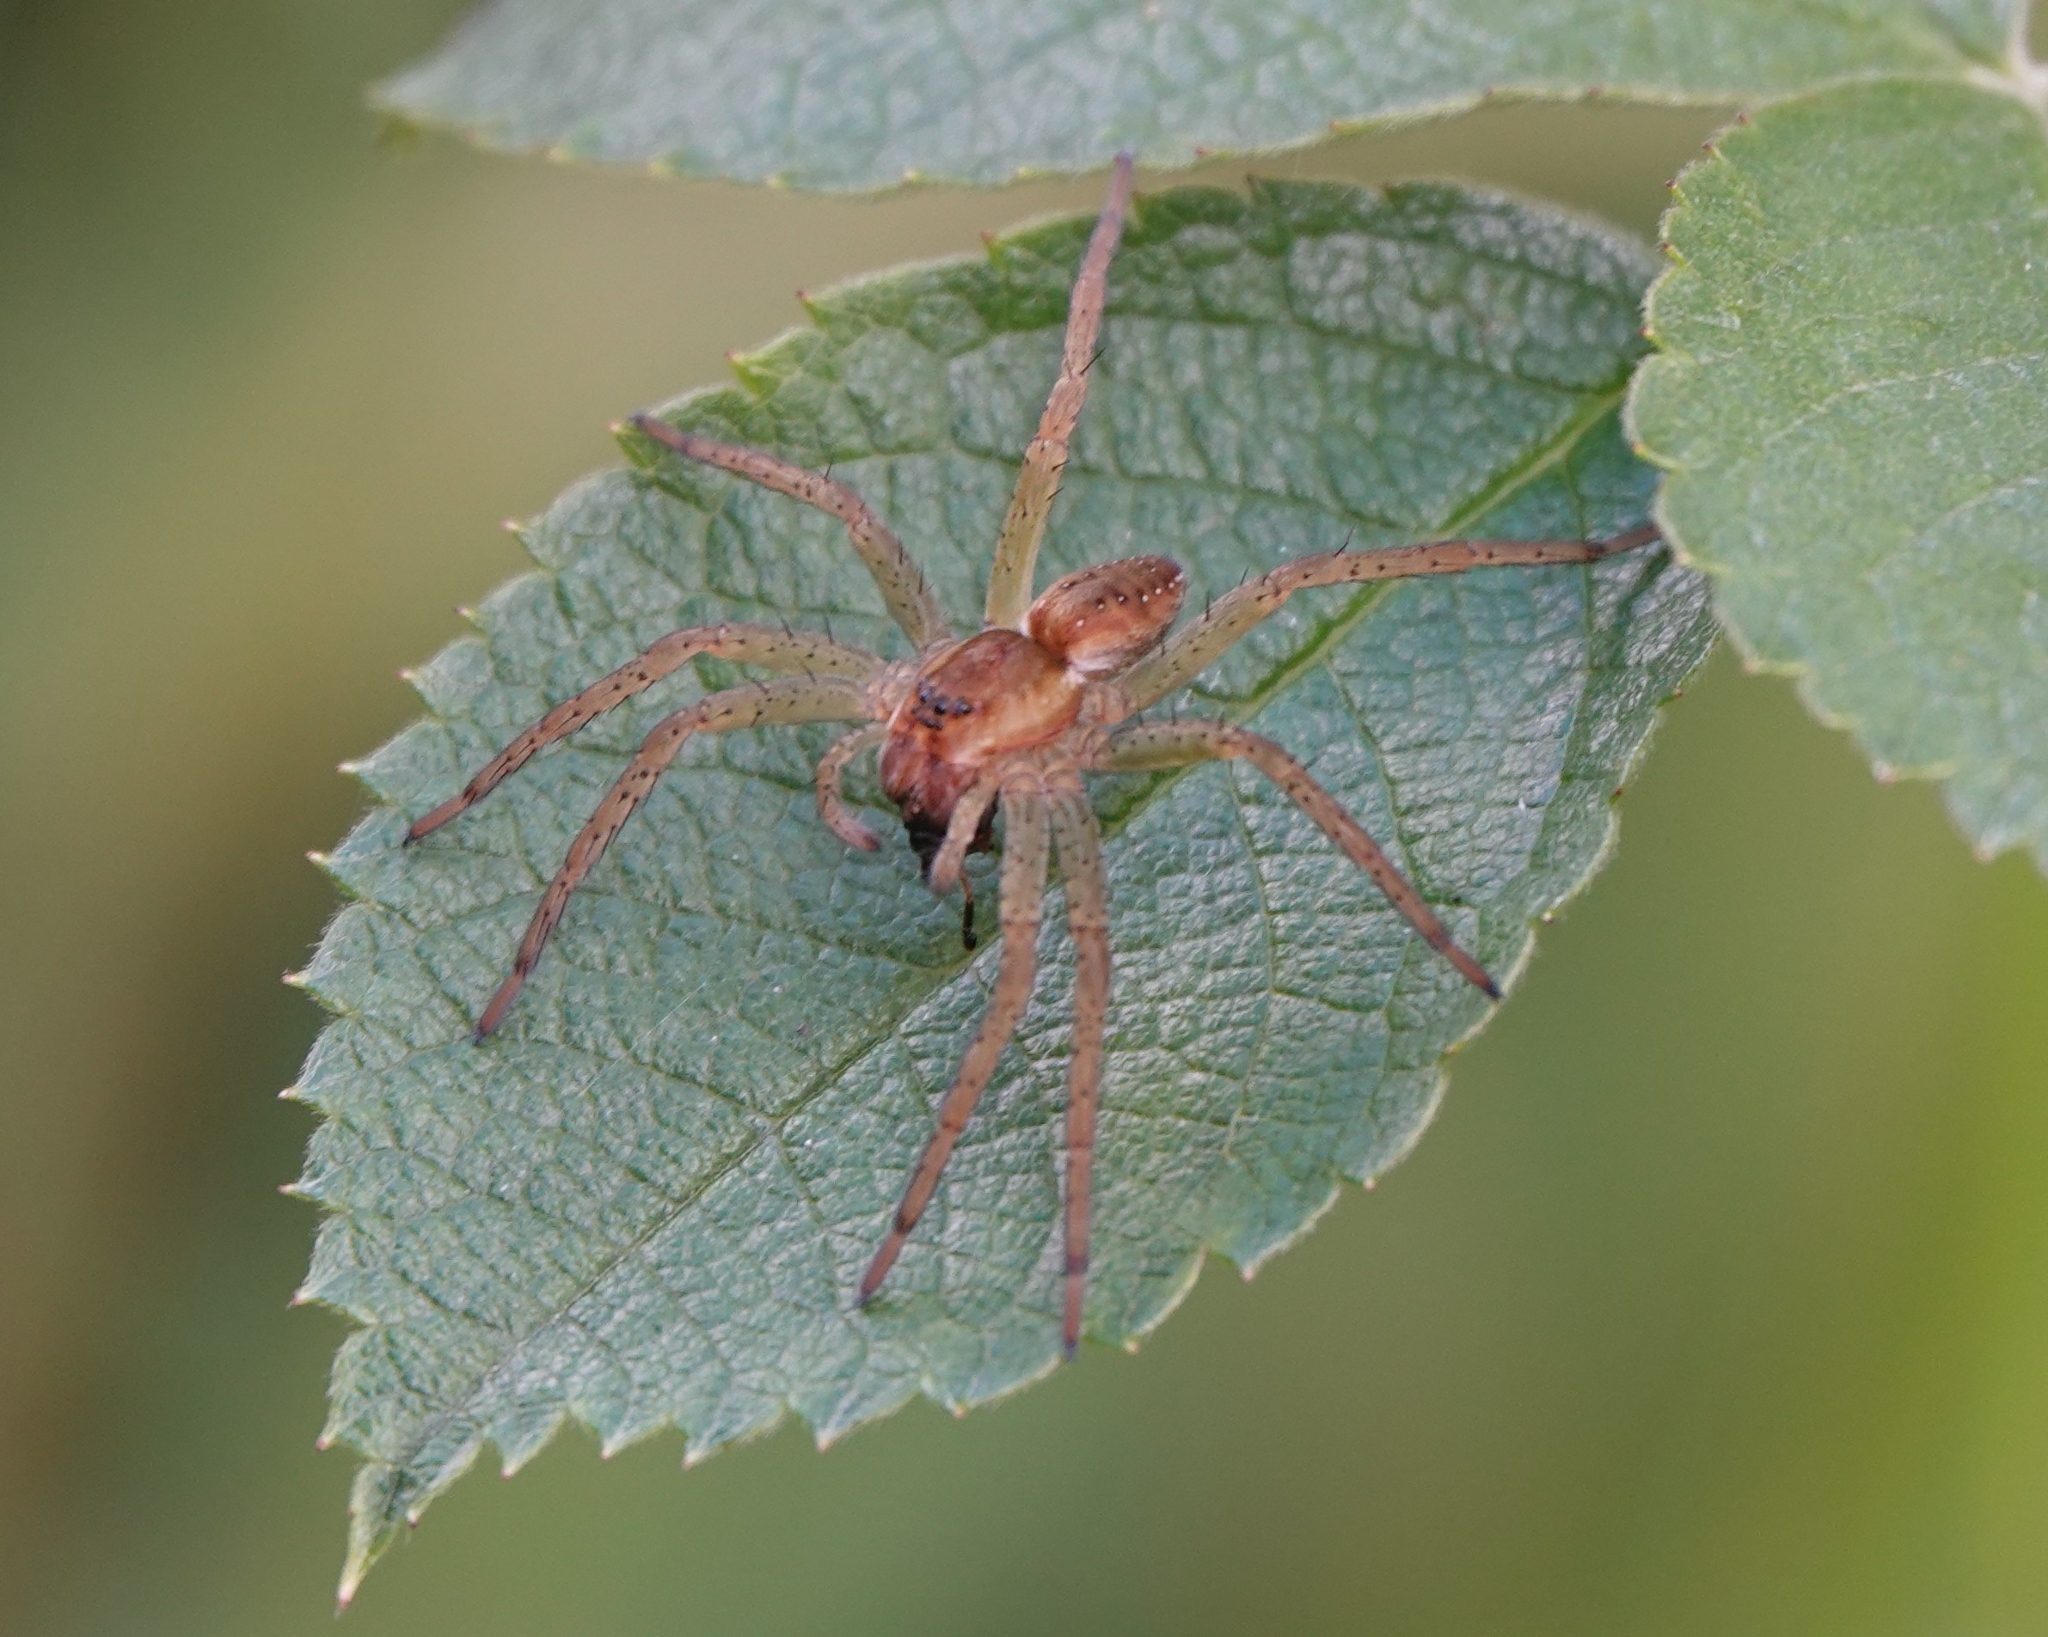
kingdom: Animalia
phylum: Arthropoda
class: Arachnida
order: Araneae
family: Pisauridae
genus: Dolomedes
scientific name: Dolomedes
